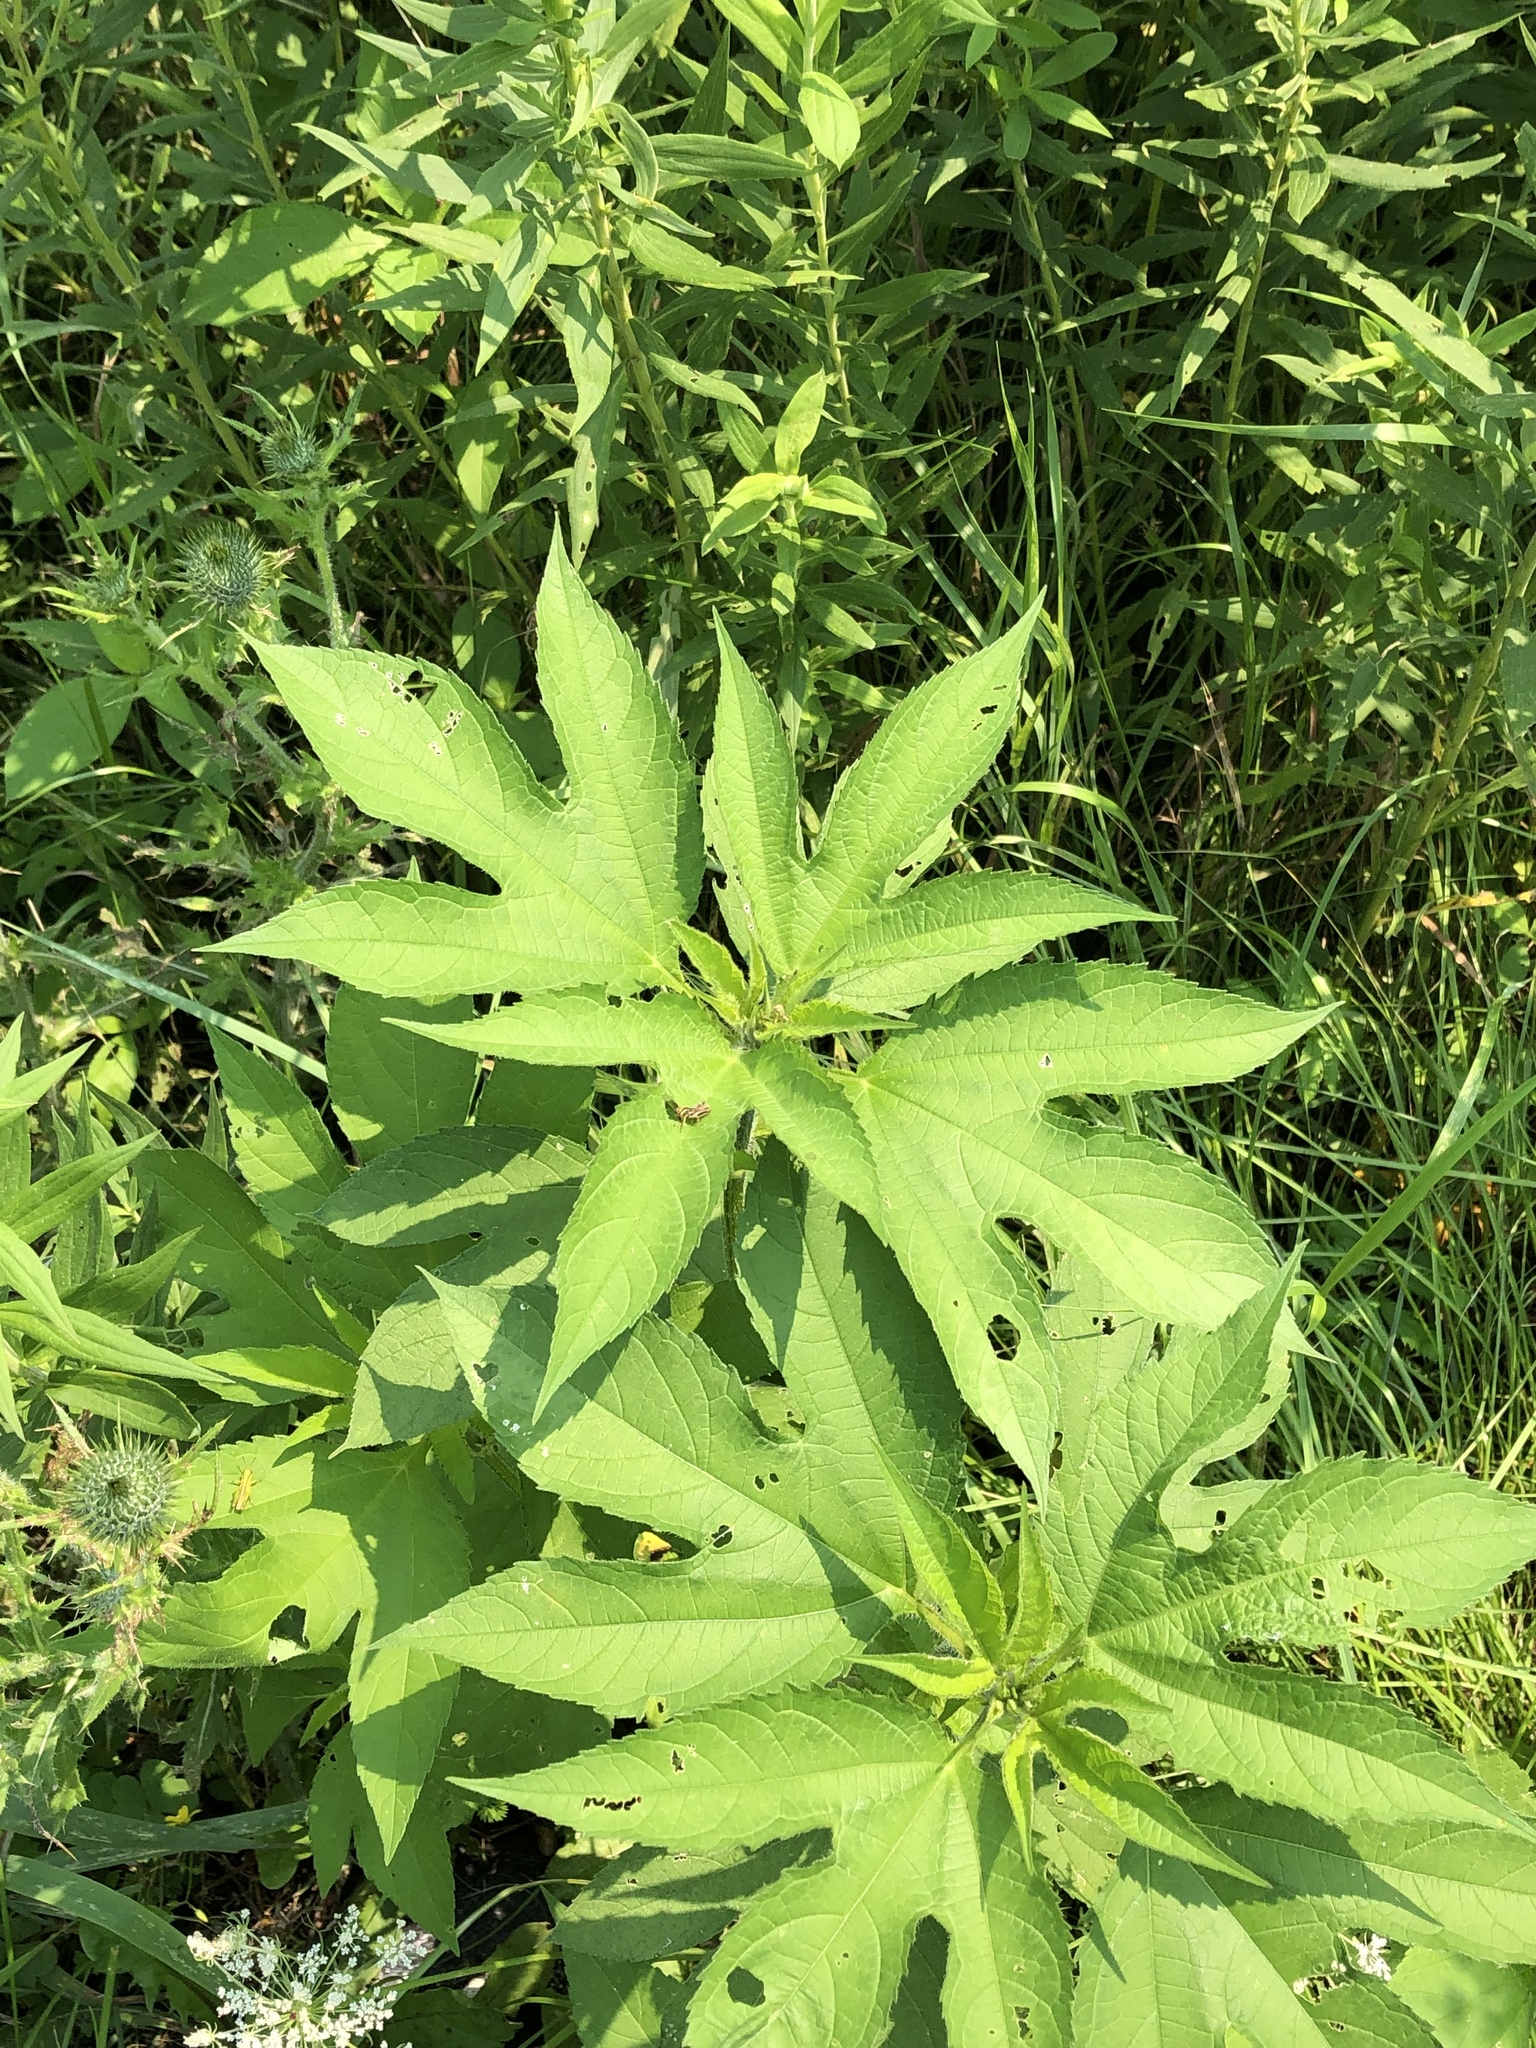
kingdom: Plantae
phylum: Tracheophyta
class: Magnoliopsida
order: Asterales
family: Asteraceae
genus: Ambrosia
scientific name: Ambrosia trifida
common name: Giant ragweed
